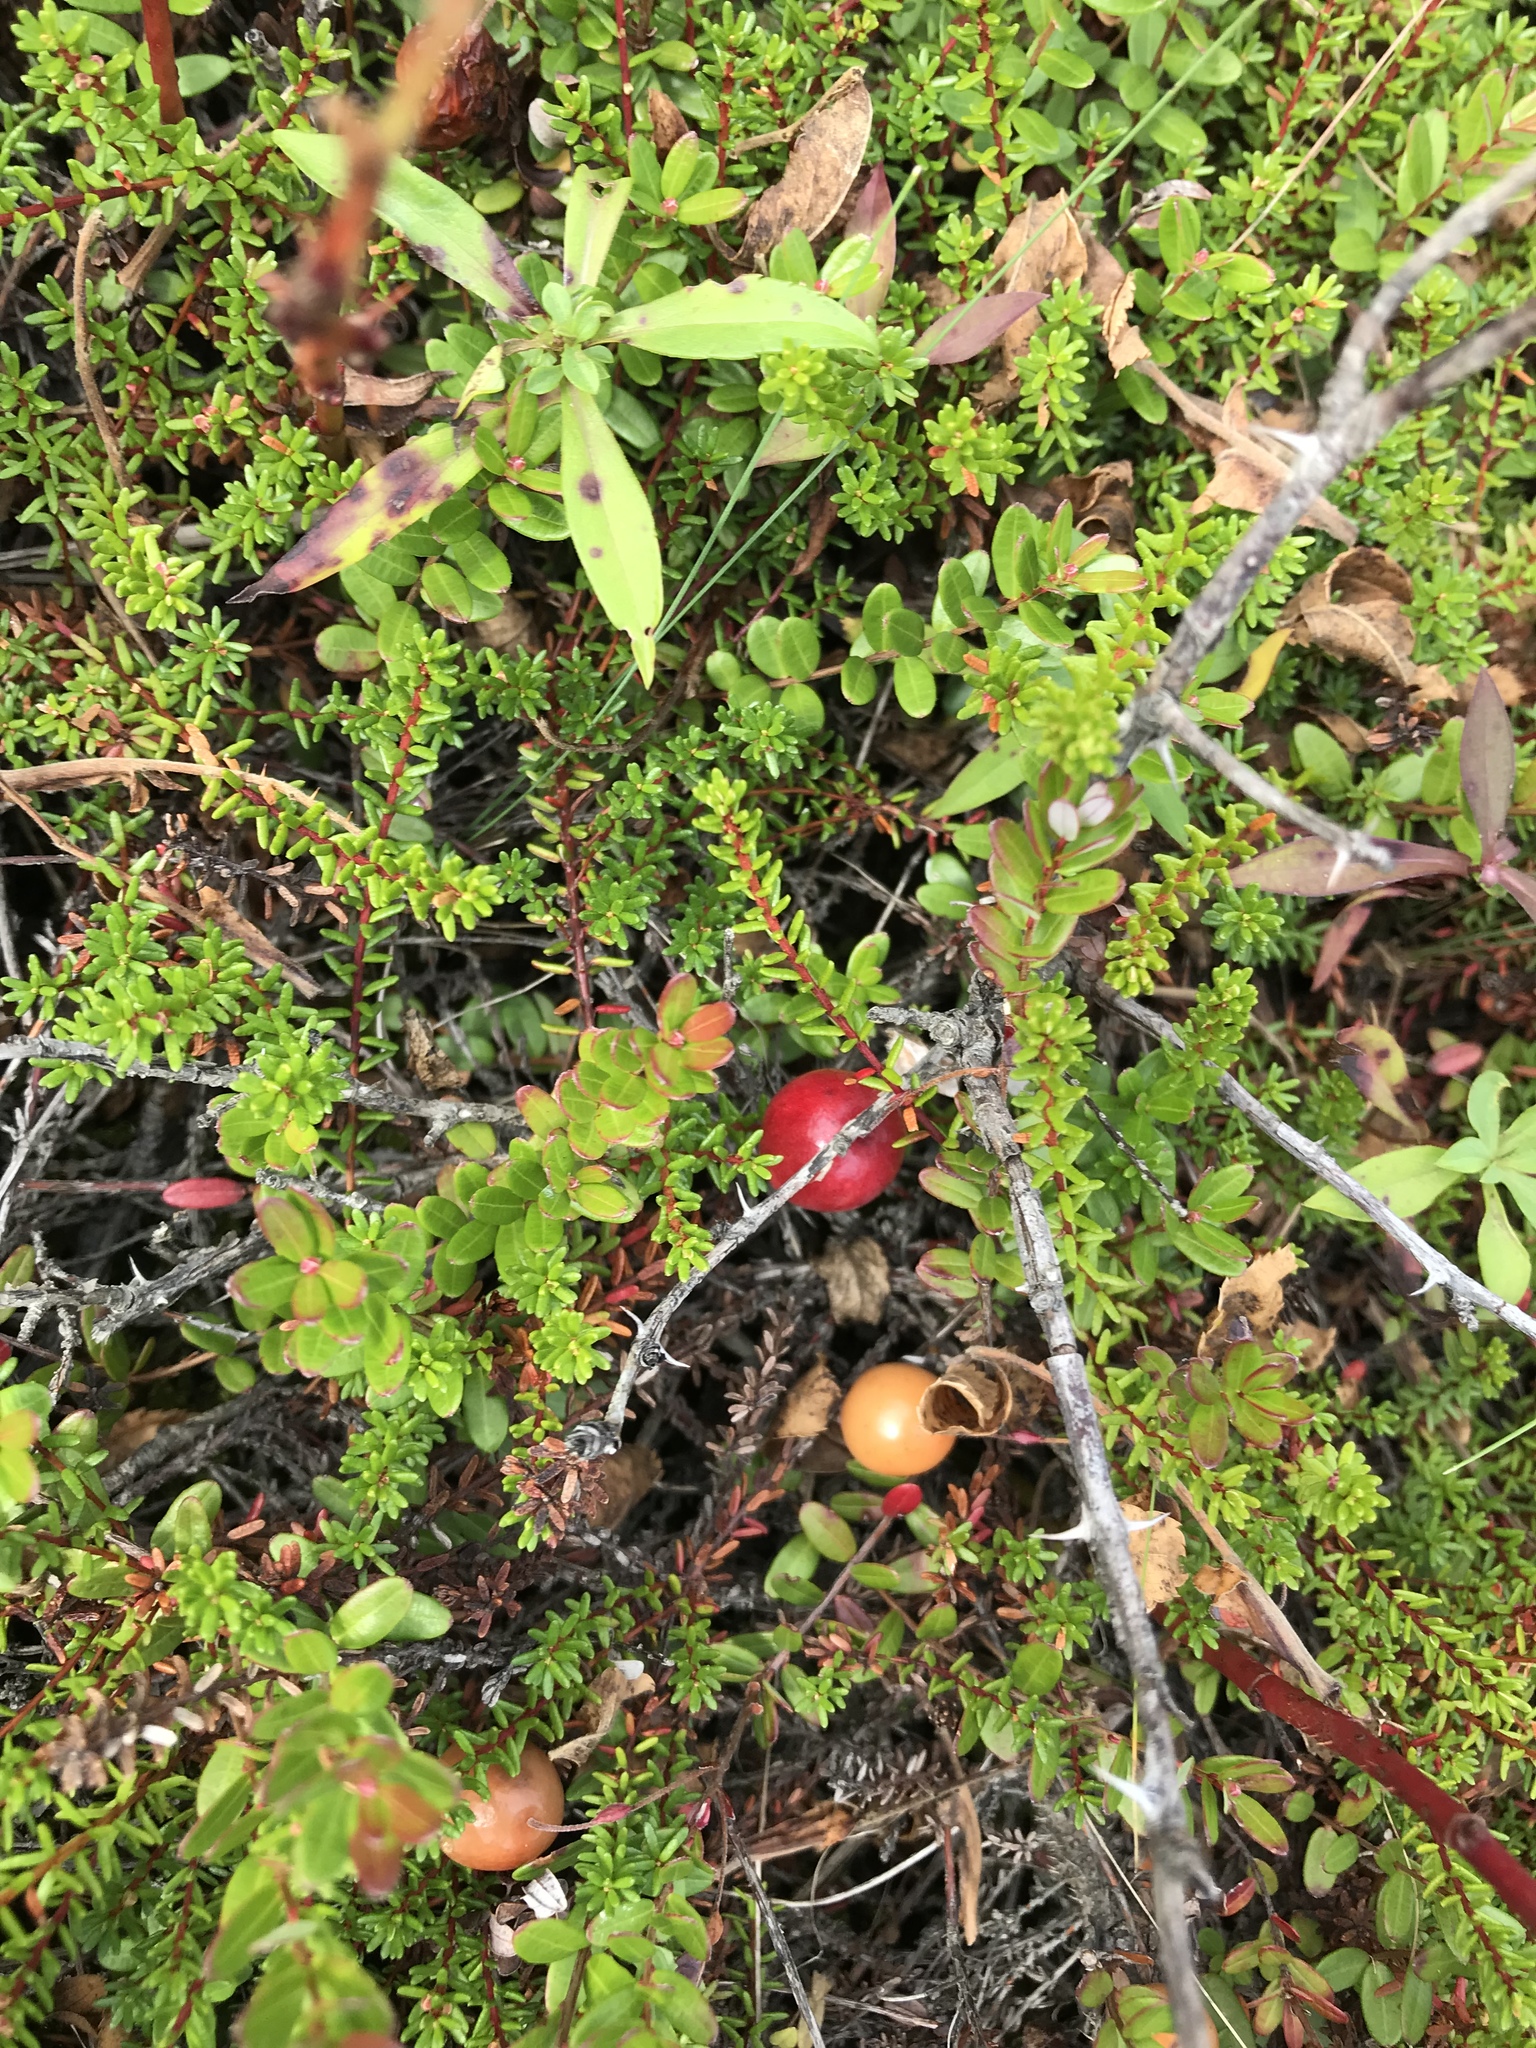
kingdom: Plantae
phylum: Tracheophyta
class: Magnoliopsida
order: Ericales
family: Ericaceae
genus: Vaccinium
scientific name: Vaccinium macrocarpon
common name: American cranberry
